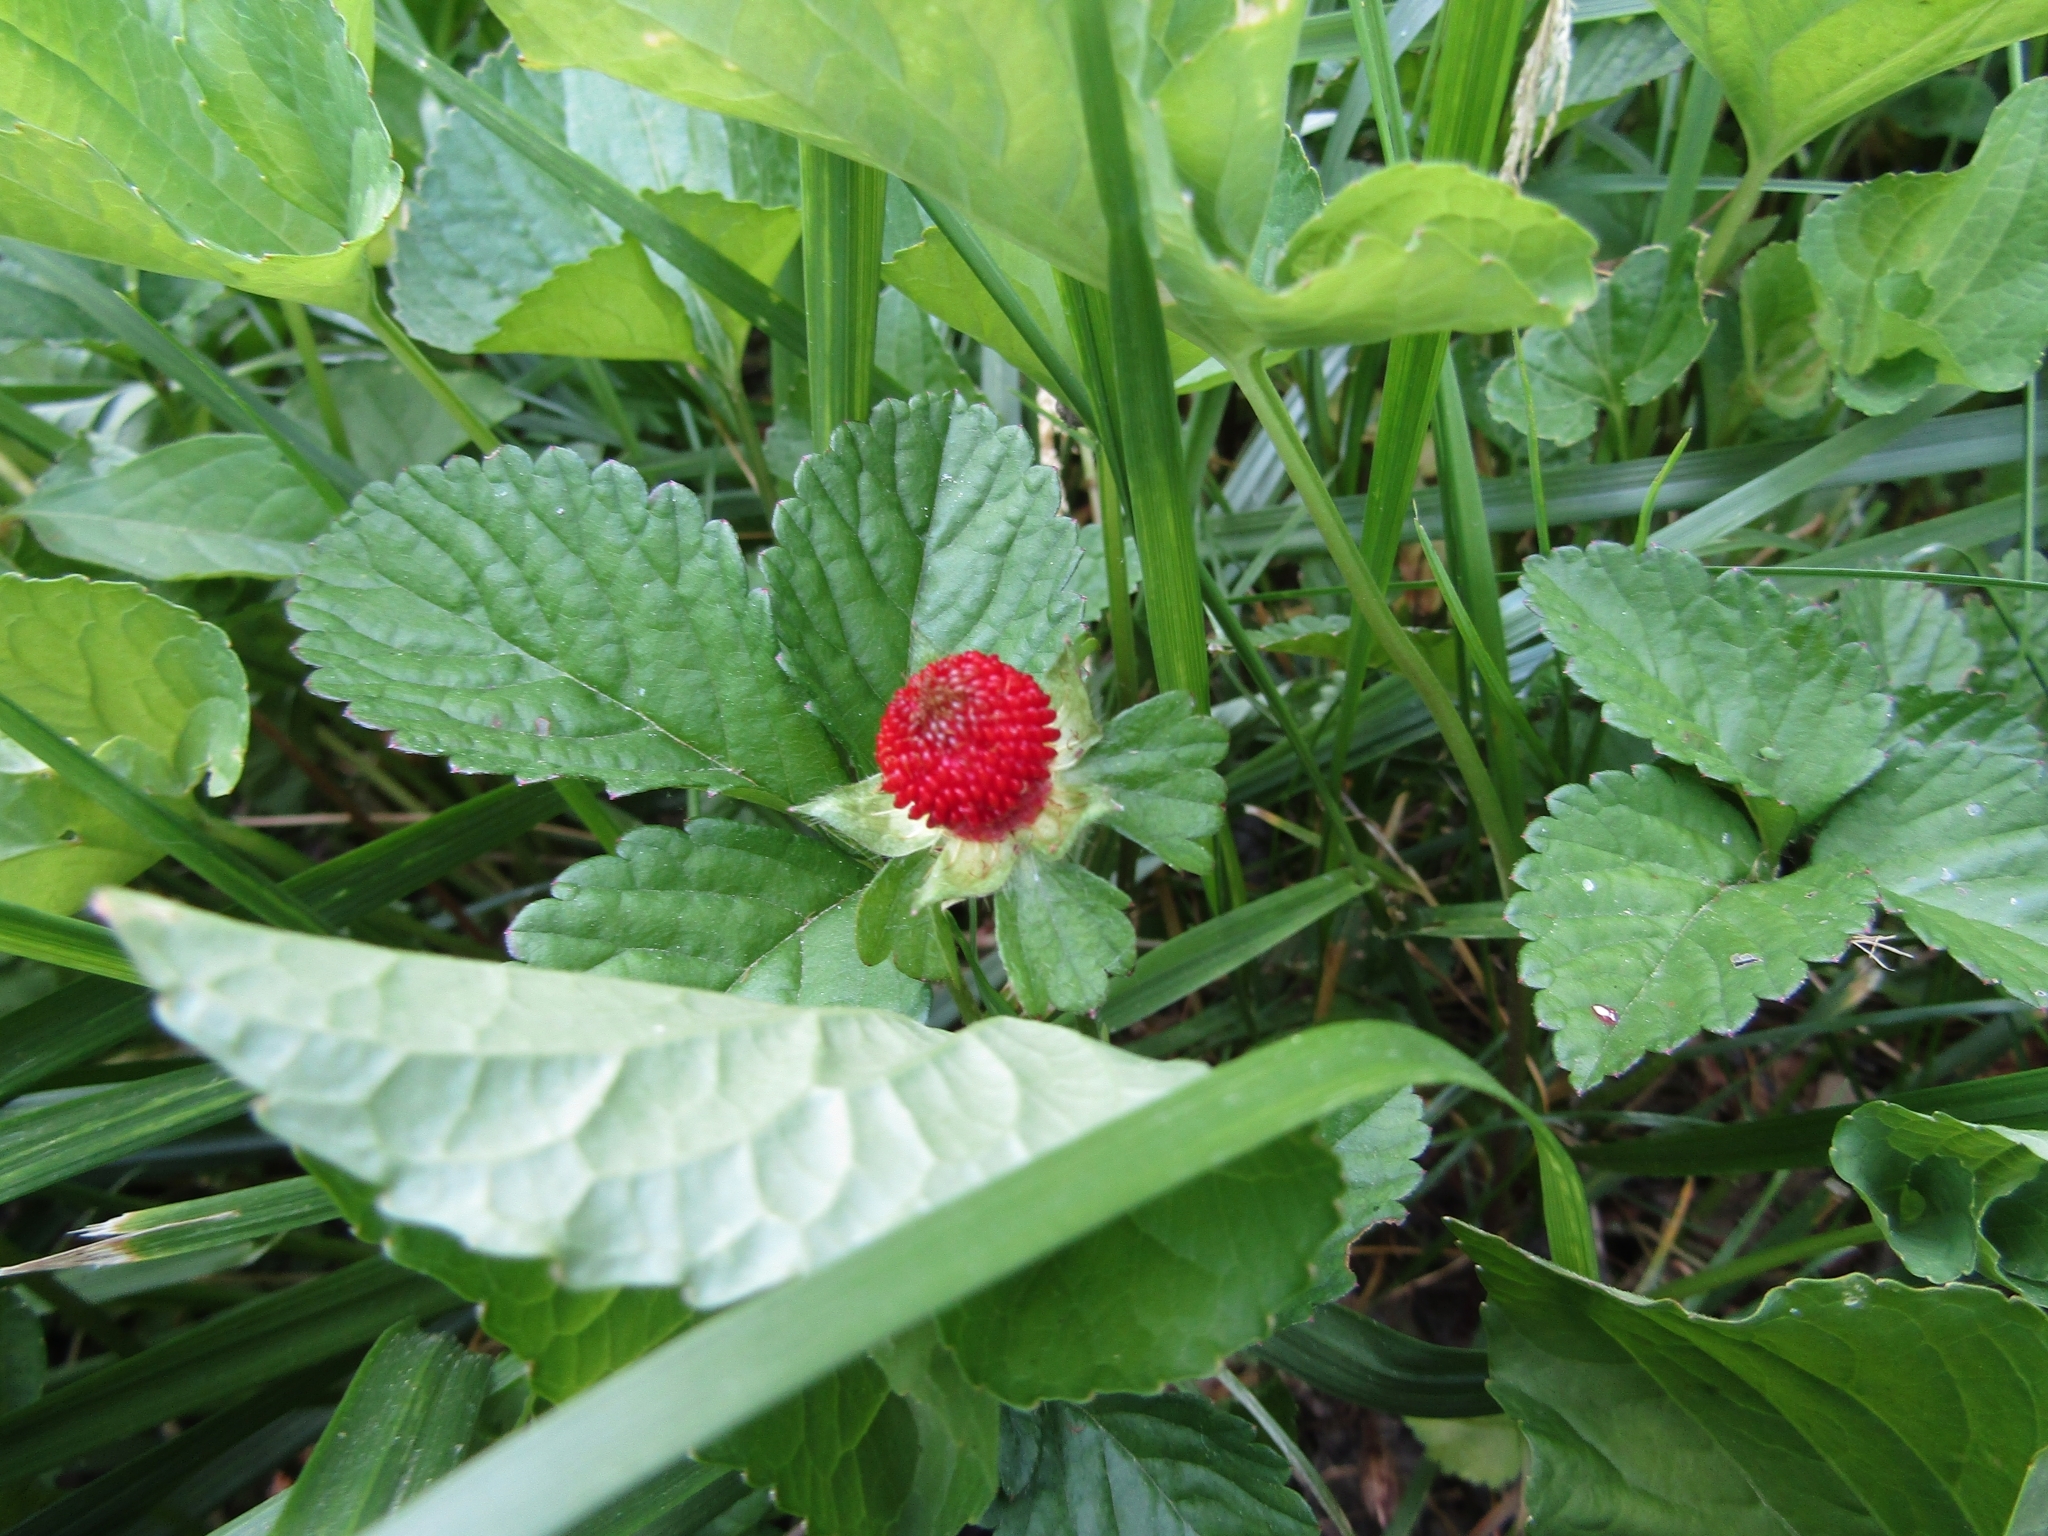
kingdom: Plantae
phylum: Tracheophyta
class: Magnoliopsida
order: Rosales
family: Rosaceae
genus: Potentilla
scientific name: Potentilla indica
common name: Yellow-flowered strawberry
